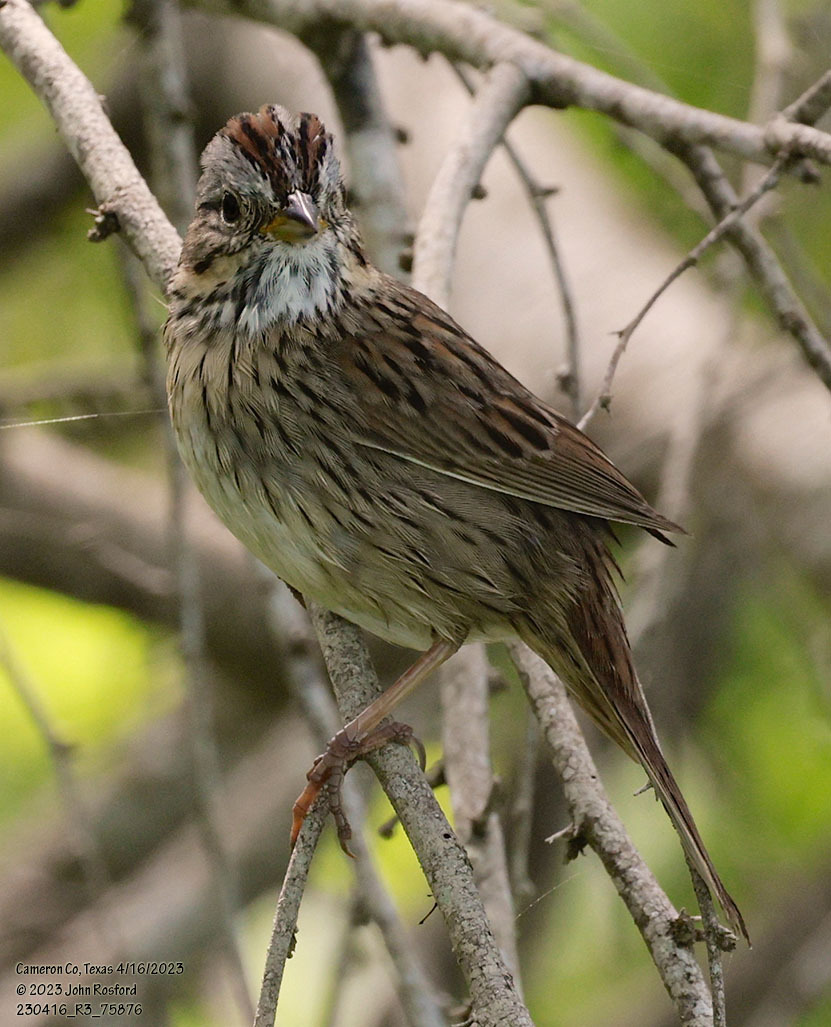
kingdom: Animalia
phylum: Chordata
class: Aves
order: Passeriformes
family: Passerellidae
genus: Melospiza
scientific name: Melospiza lincolnii
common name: Lincoln's sparrow
